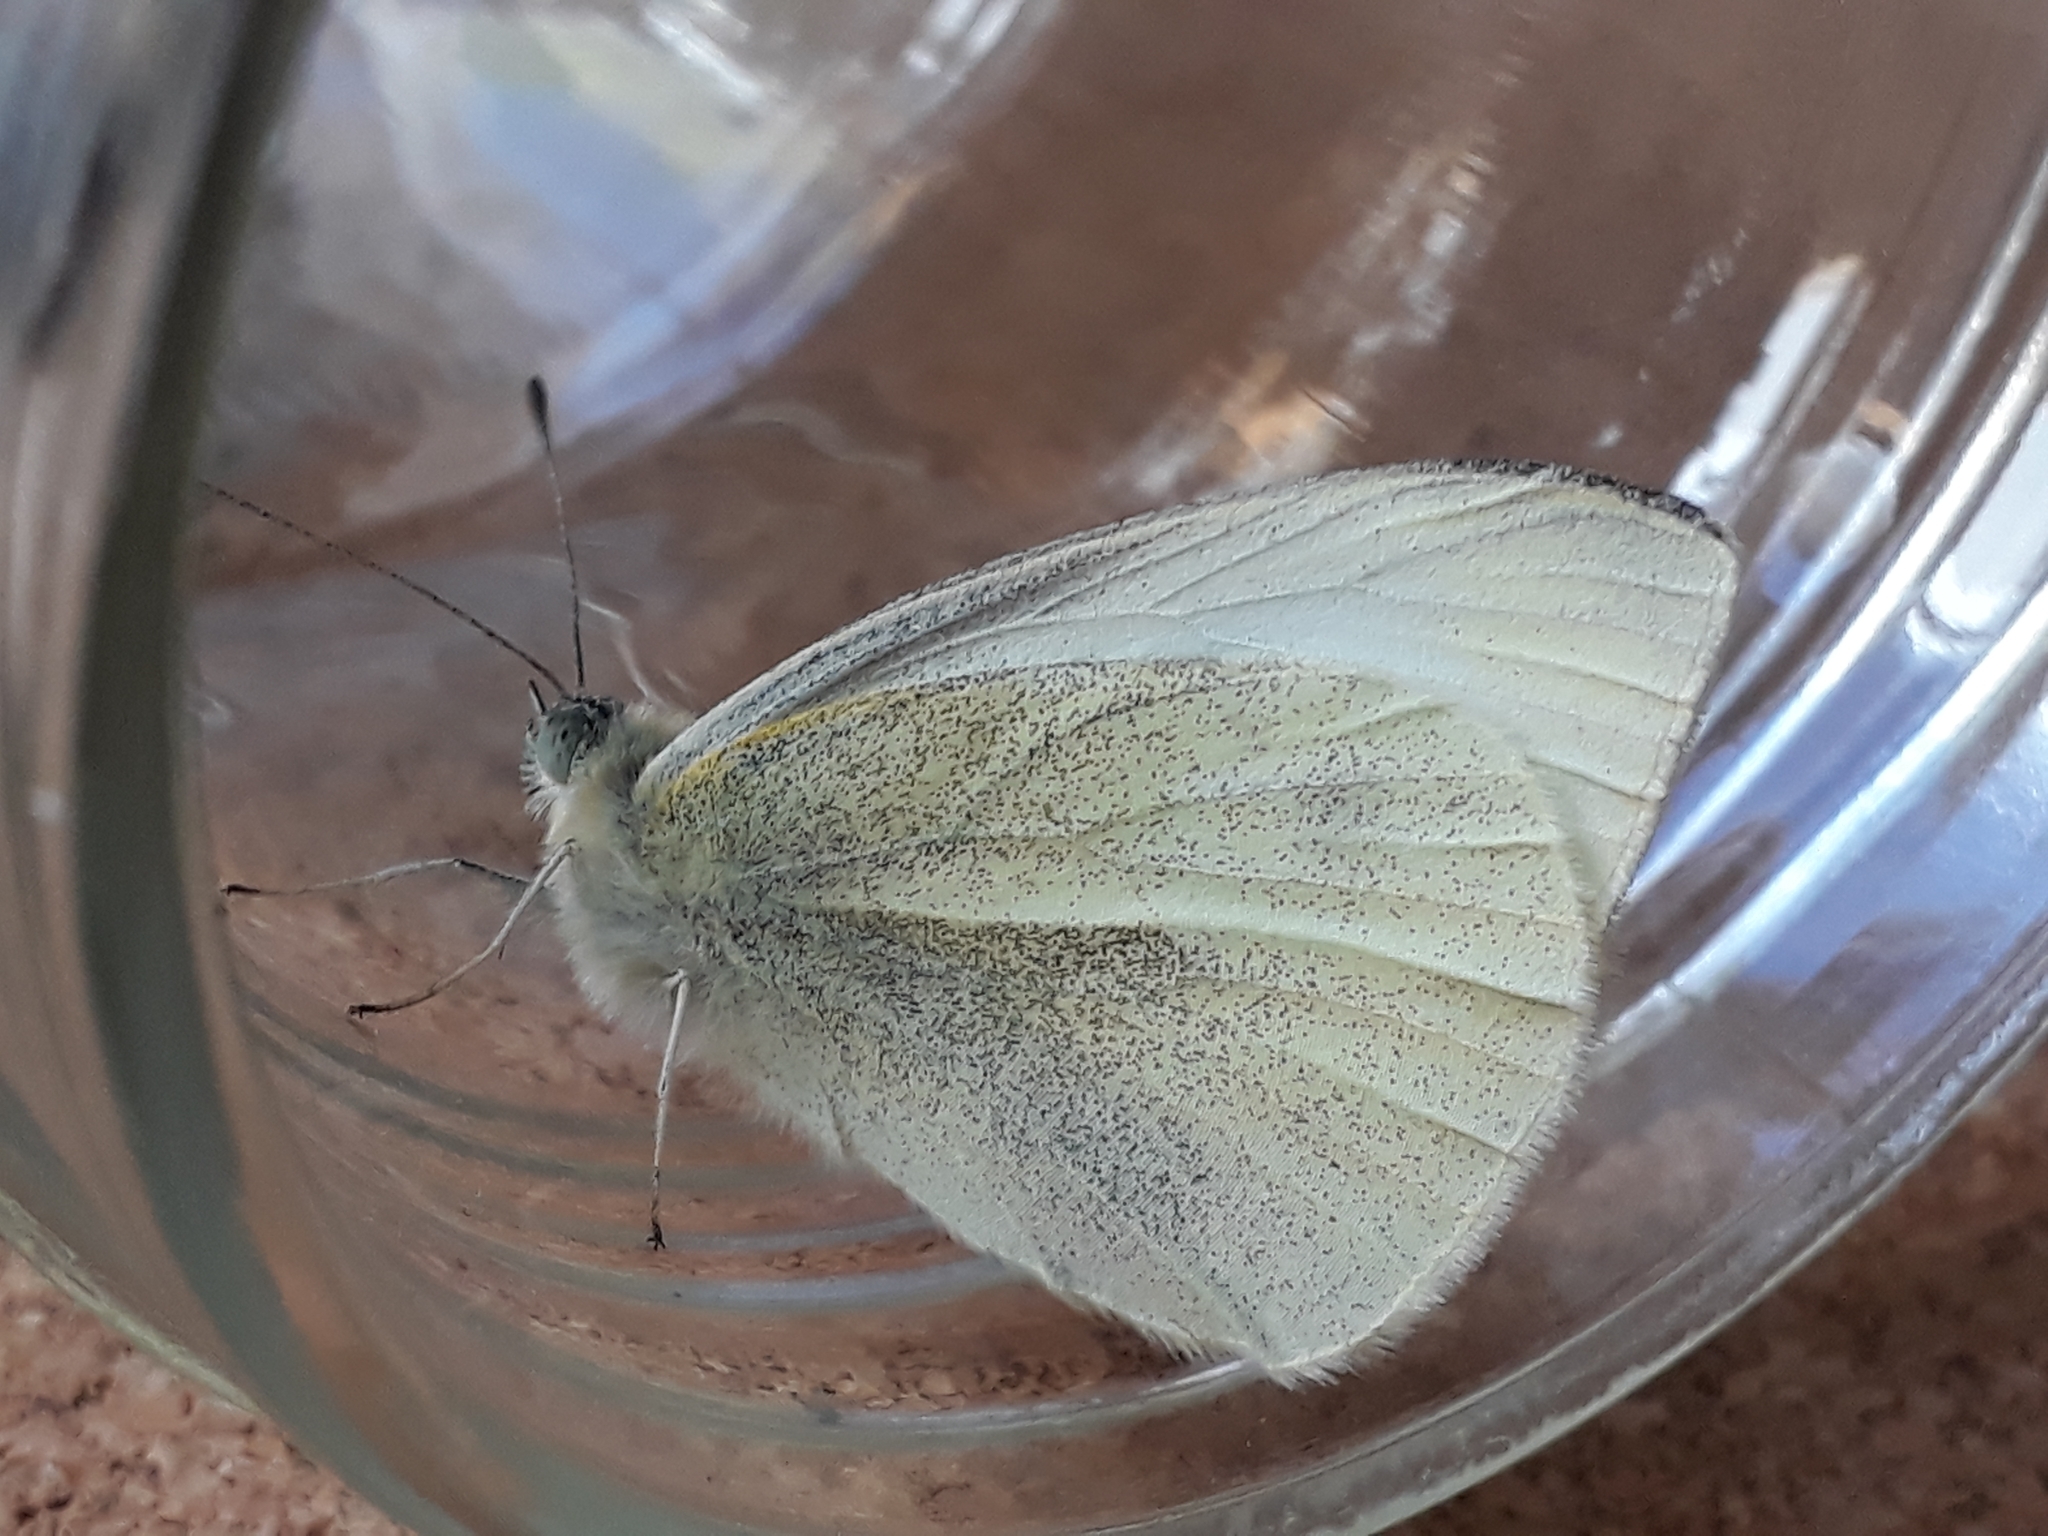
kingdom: Animalia
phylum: Arthropoda
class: Insecta
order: Lepidoptera
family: Pieridae
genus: Pieris
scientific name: Pieris rapae
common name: Small white
